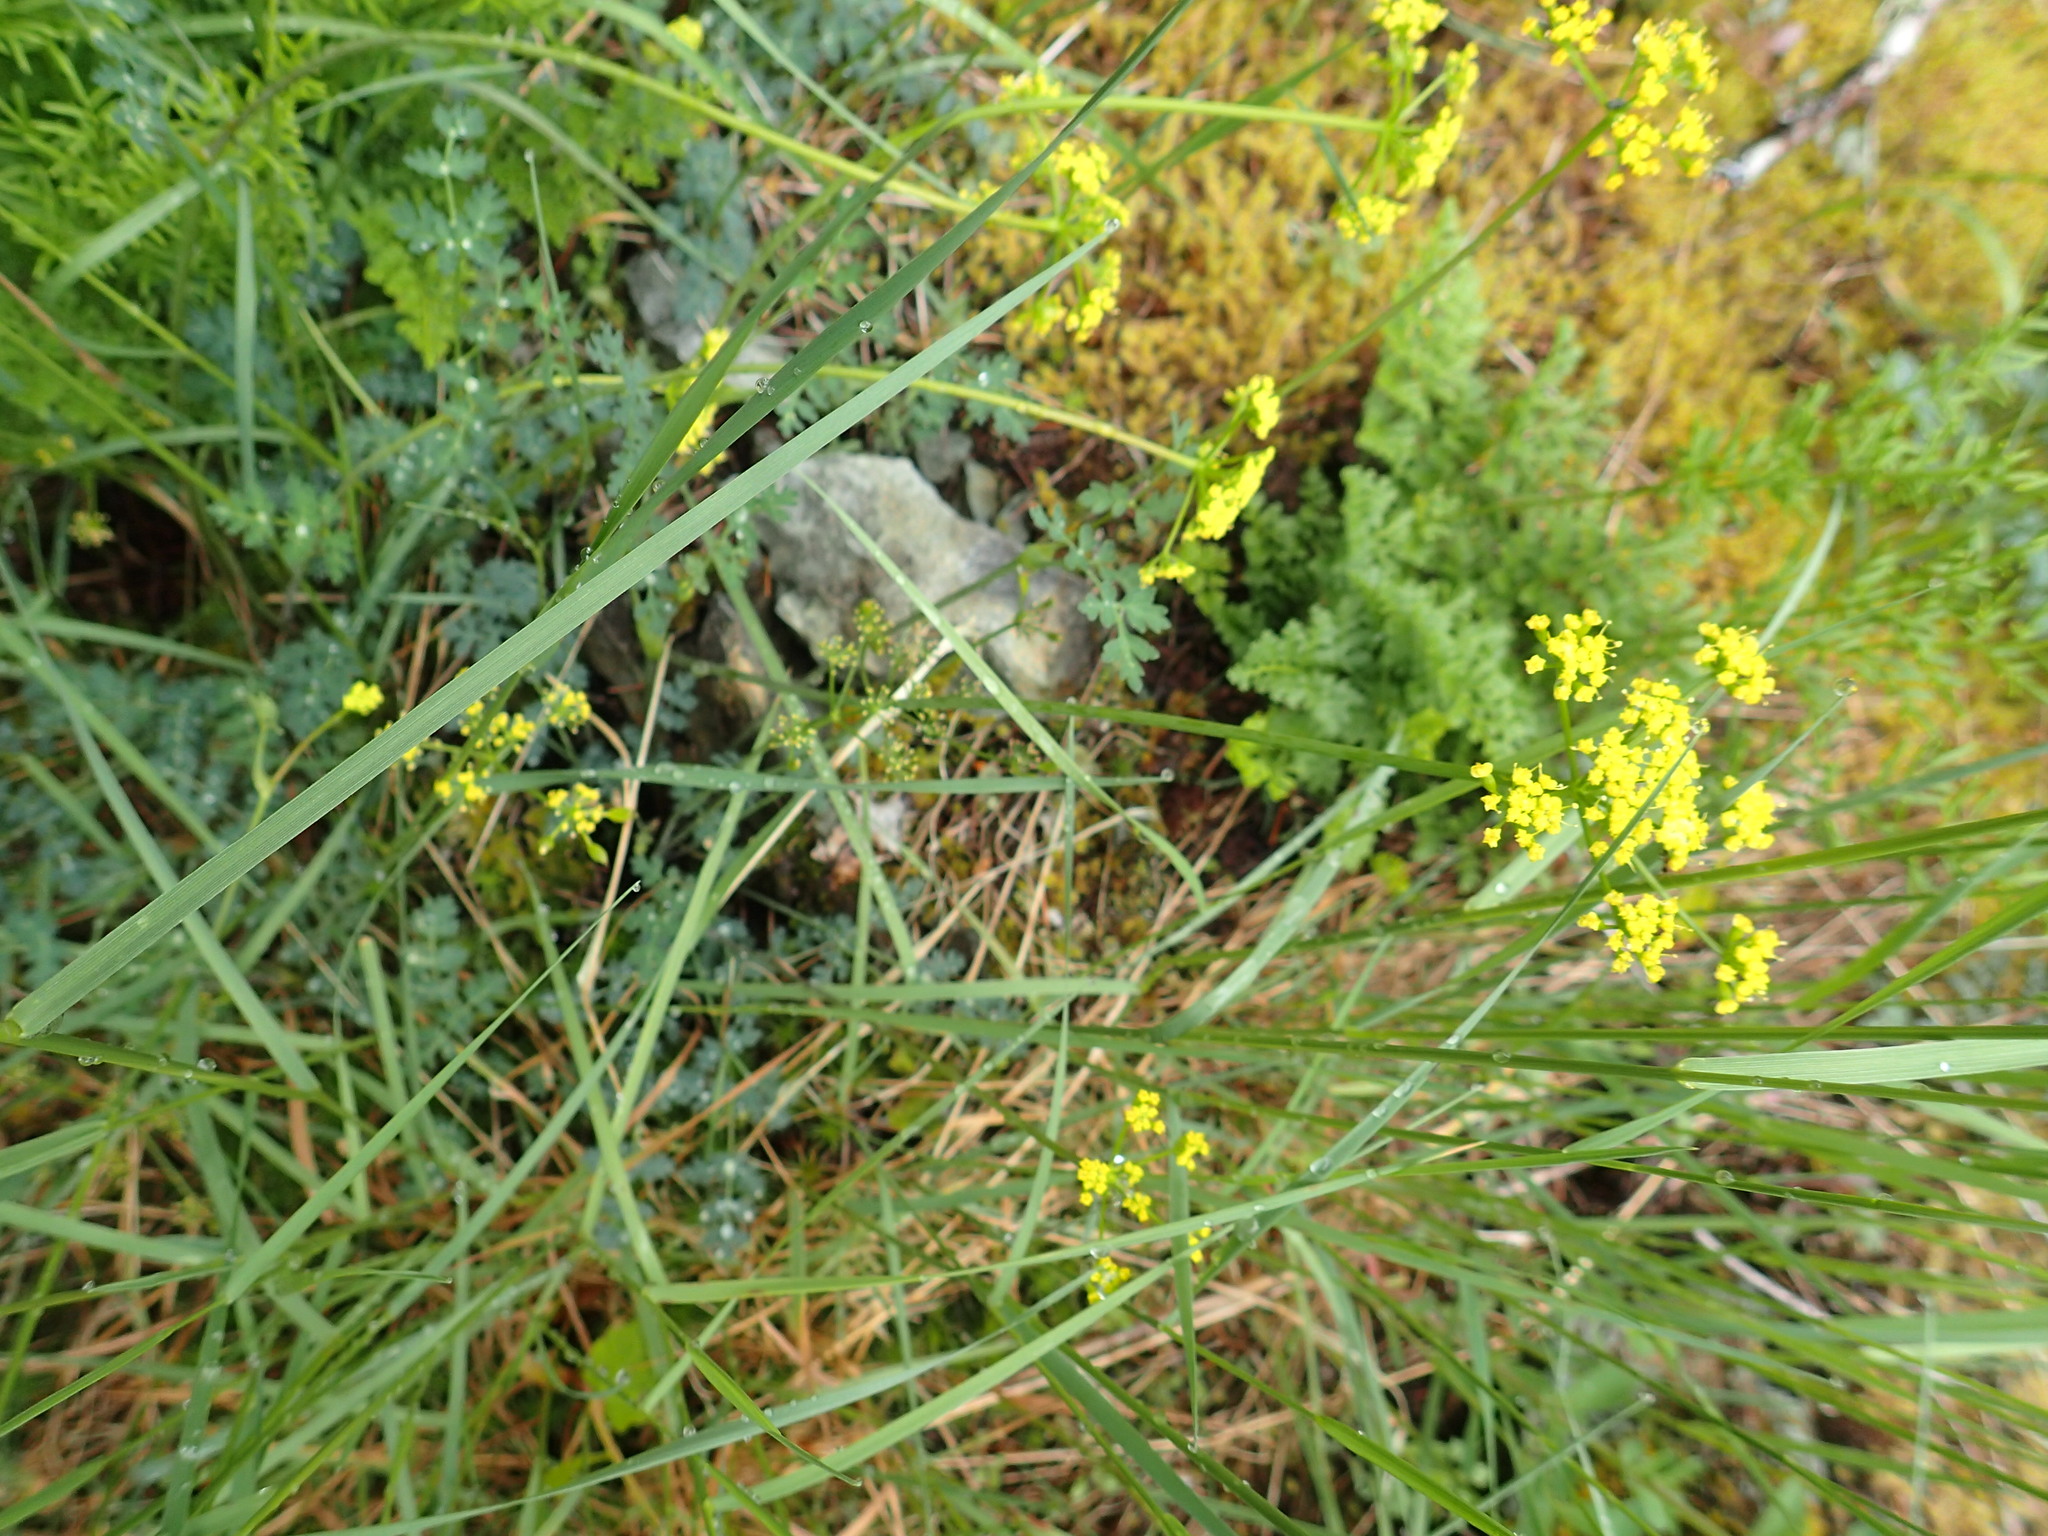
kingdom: Plantae
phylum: Tracheophyta
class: Magnoliopsida
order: Apiales
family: Apiaceae
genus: Lomatium
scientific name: Lomatium martindalei
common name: Cascade desert-parsley
